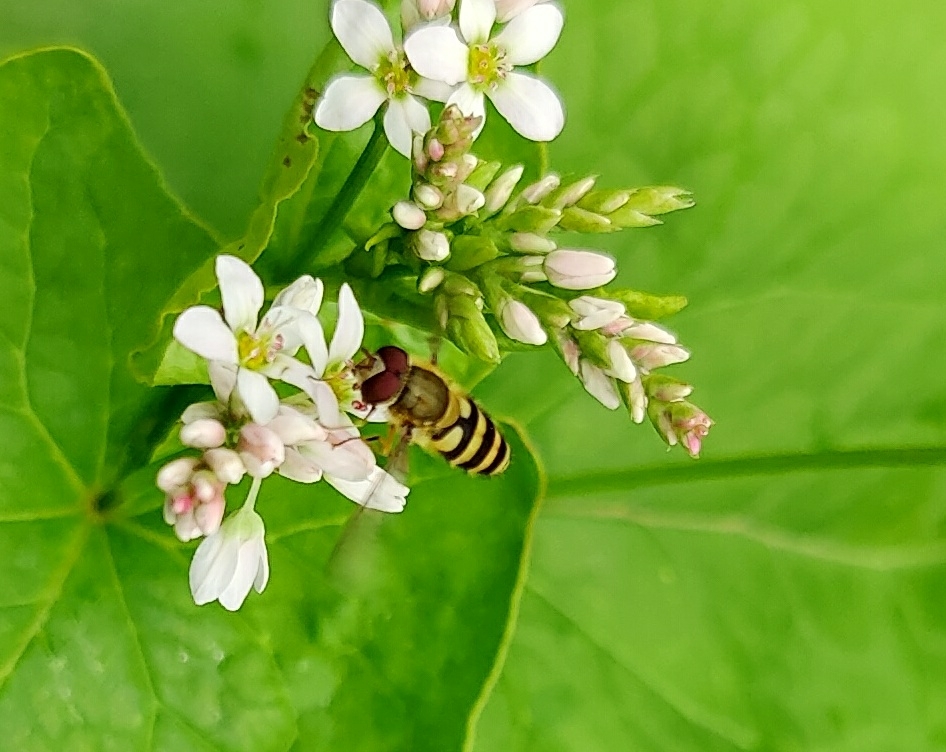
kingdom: Animalia
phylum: Arthropoda
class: Insecta
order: Diptera
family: Syrphidae
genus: Syrphus
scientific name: Syrphus
